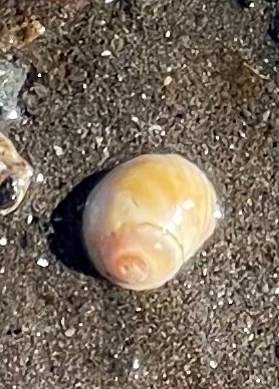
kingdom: Animalia
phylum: Mollusca
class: Gastropoda
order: Littorinimorpha
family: Littorinidae
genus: Littorina
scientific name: Littorina obtusata
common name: Flat periwinkle
